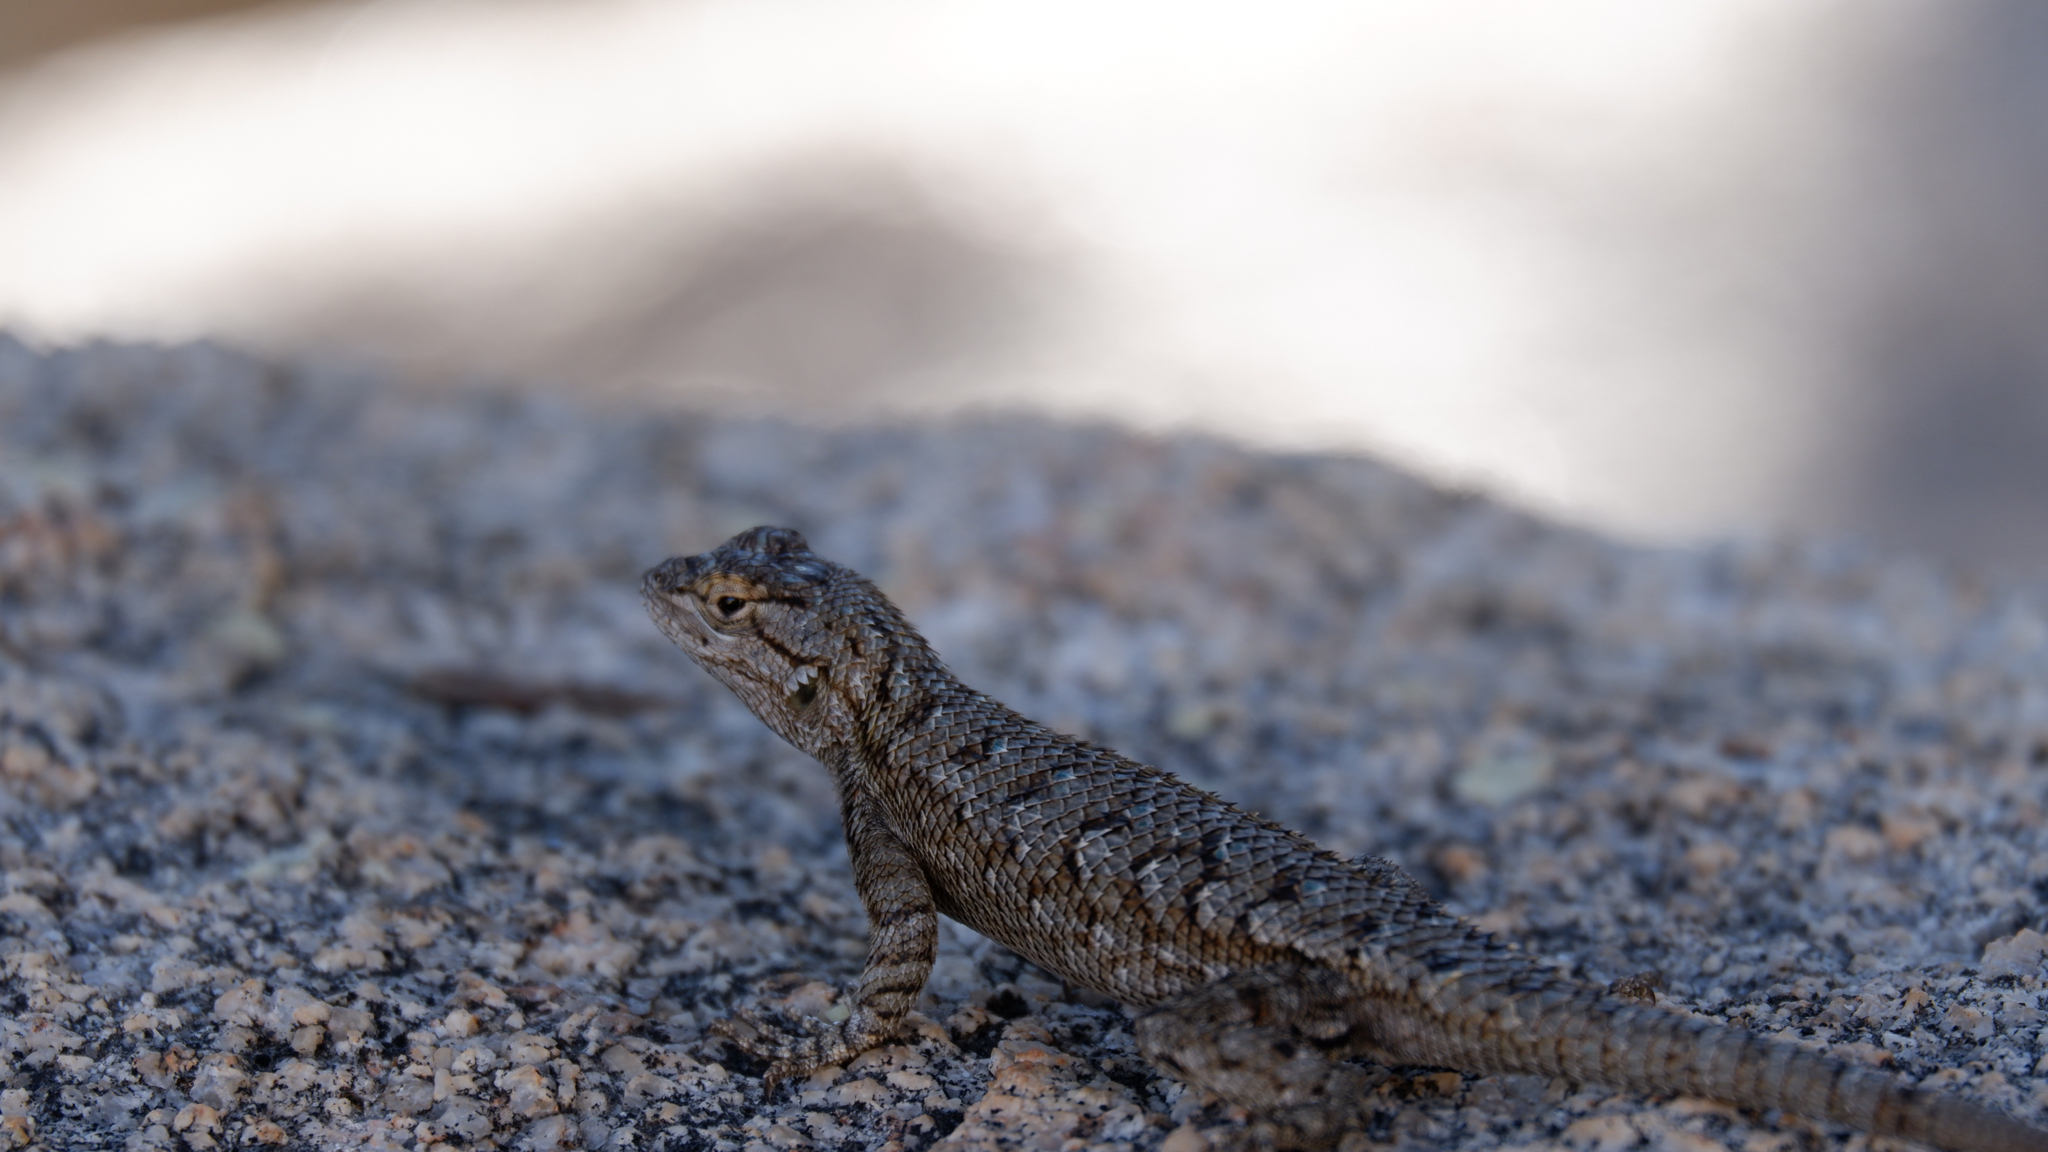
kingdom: Animalia
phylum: Chordata
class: Squamata
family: Phrynosomatidae
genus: Sceloporus
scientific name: Sceloporus occidentalis
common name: Western fence lizard
